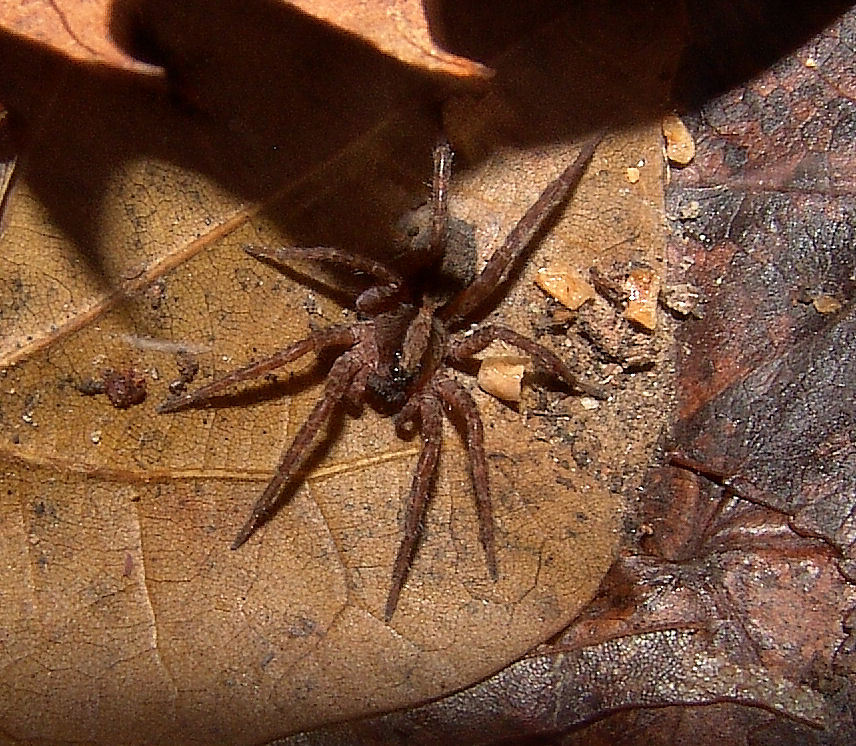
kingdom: Animalia
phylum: Arthropoda
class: Arachnida
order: Araneae
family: Lycosidae
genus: Trochosa
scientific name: Trochosa sepulchralis
